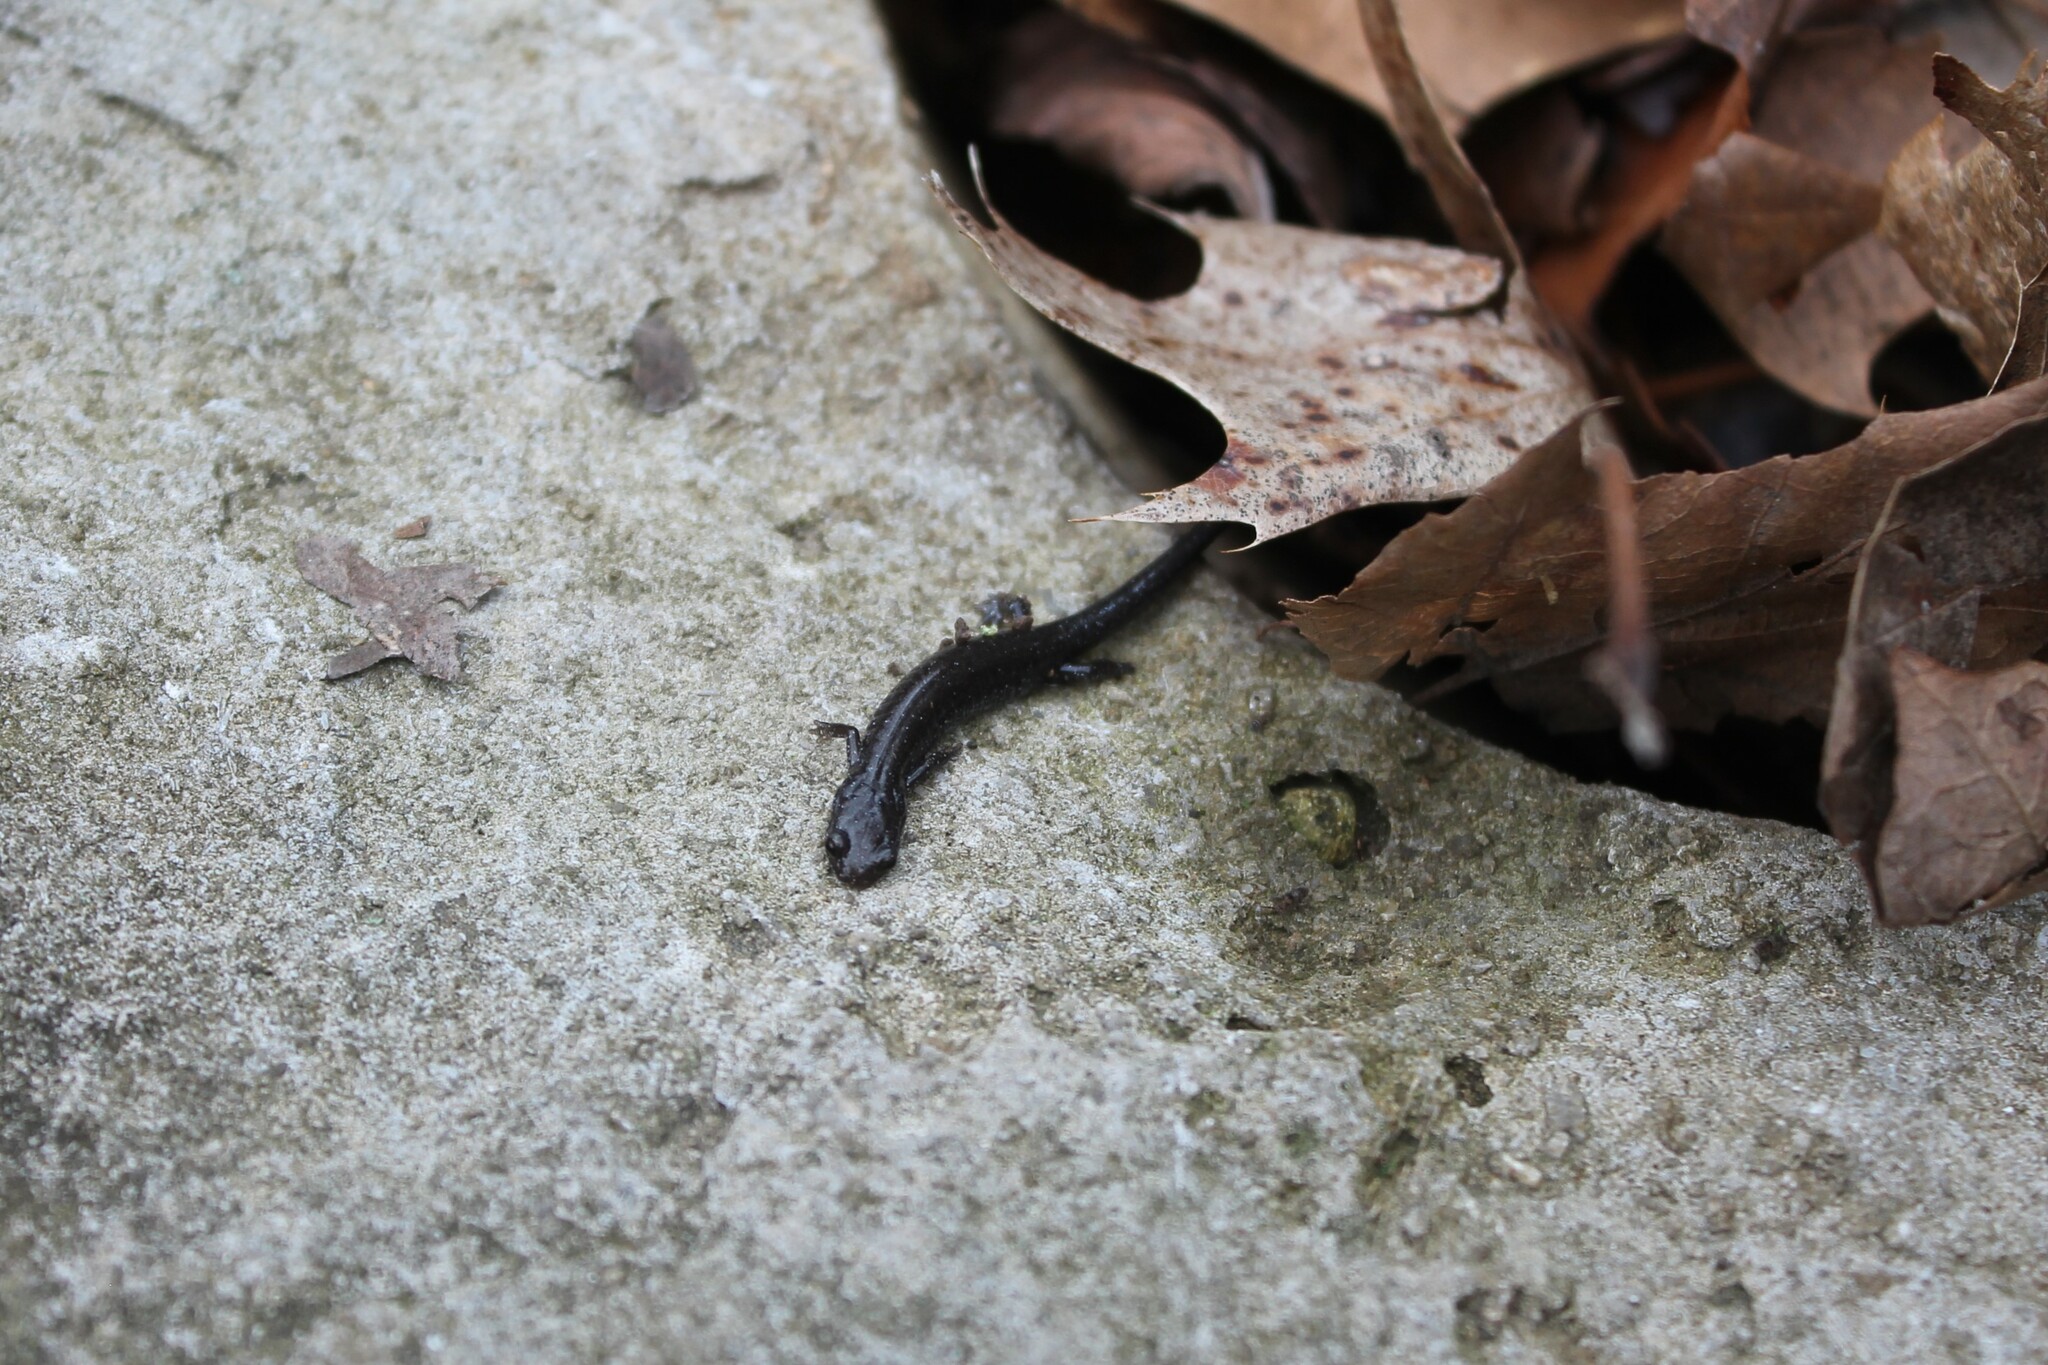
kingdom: Animalia
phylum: Chordata
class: Amphibia
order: Caudata
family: Plethodontidae
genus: Plethodon
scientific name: Plethodon dorsalis
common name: Northern zigzag salamander
